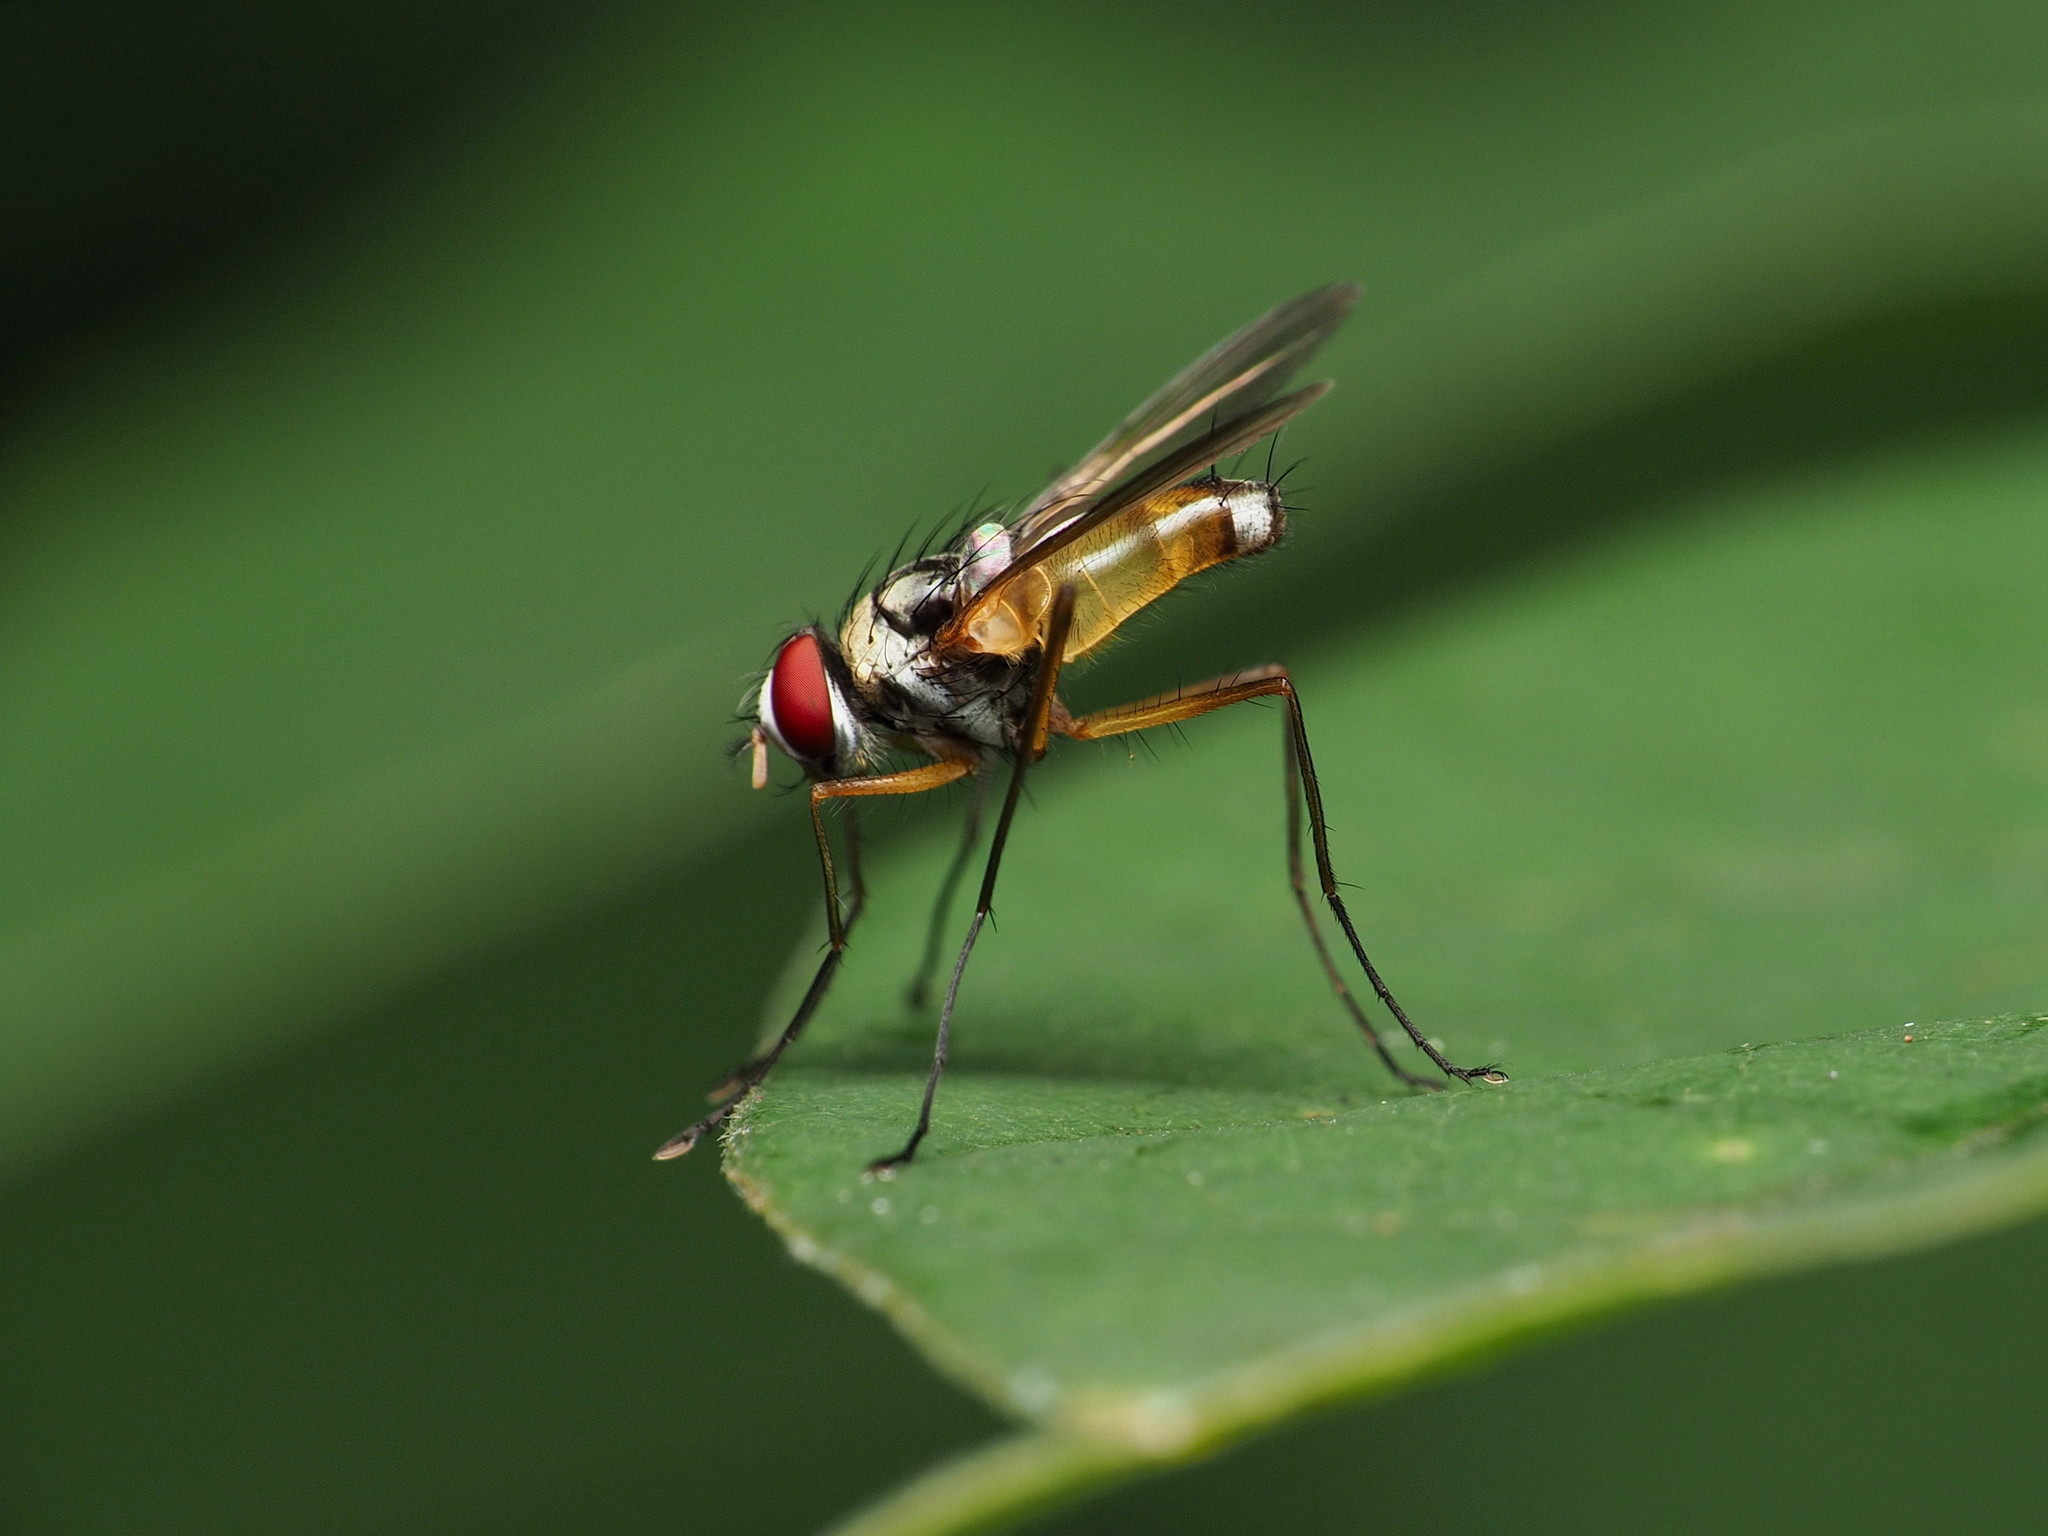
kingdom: Animalia
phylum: Arthropoda
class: Insecta
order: Diptera
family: Tachinidae
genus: Cholomyia
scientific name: Cholomyia inaequipes
